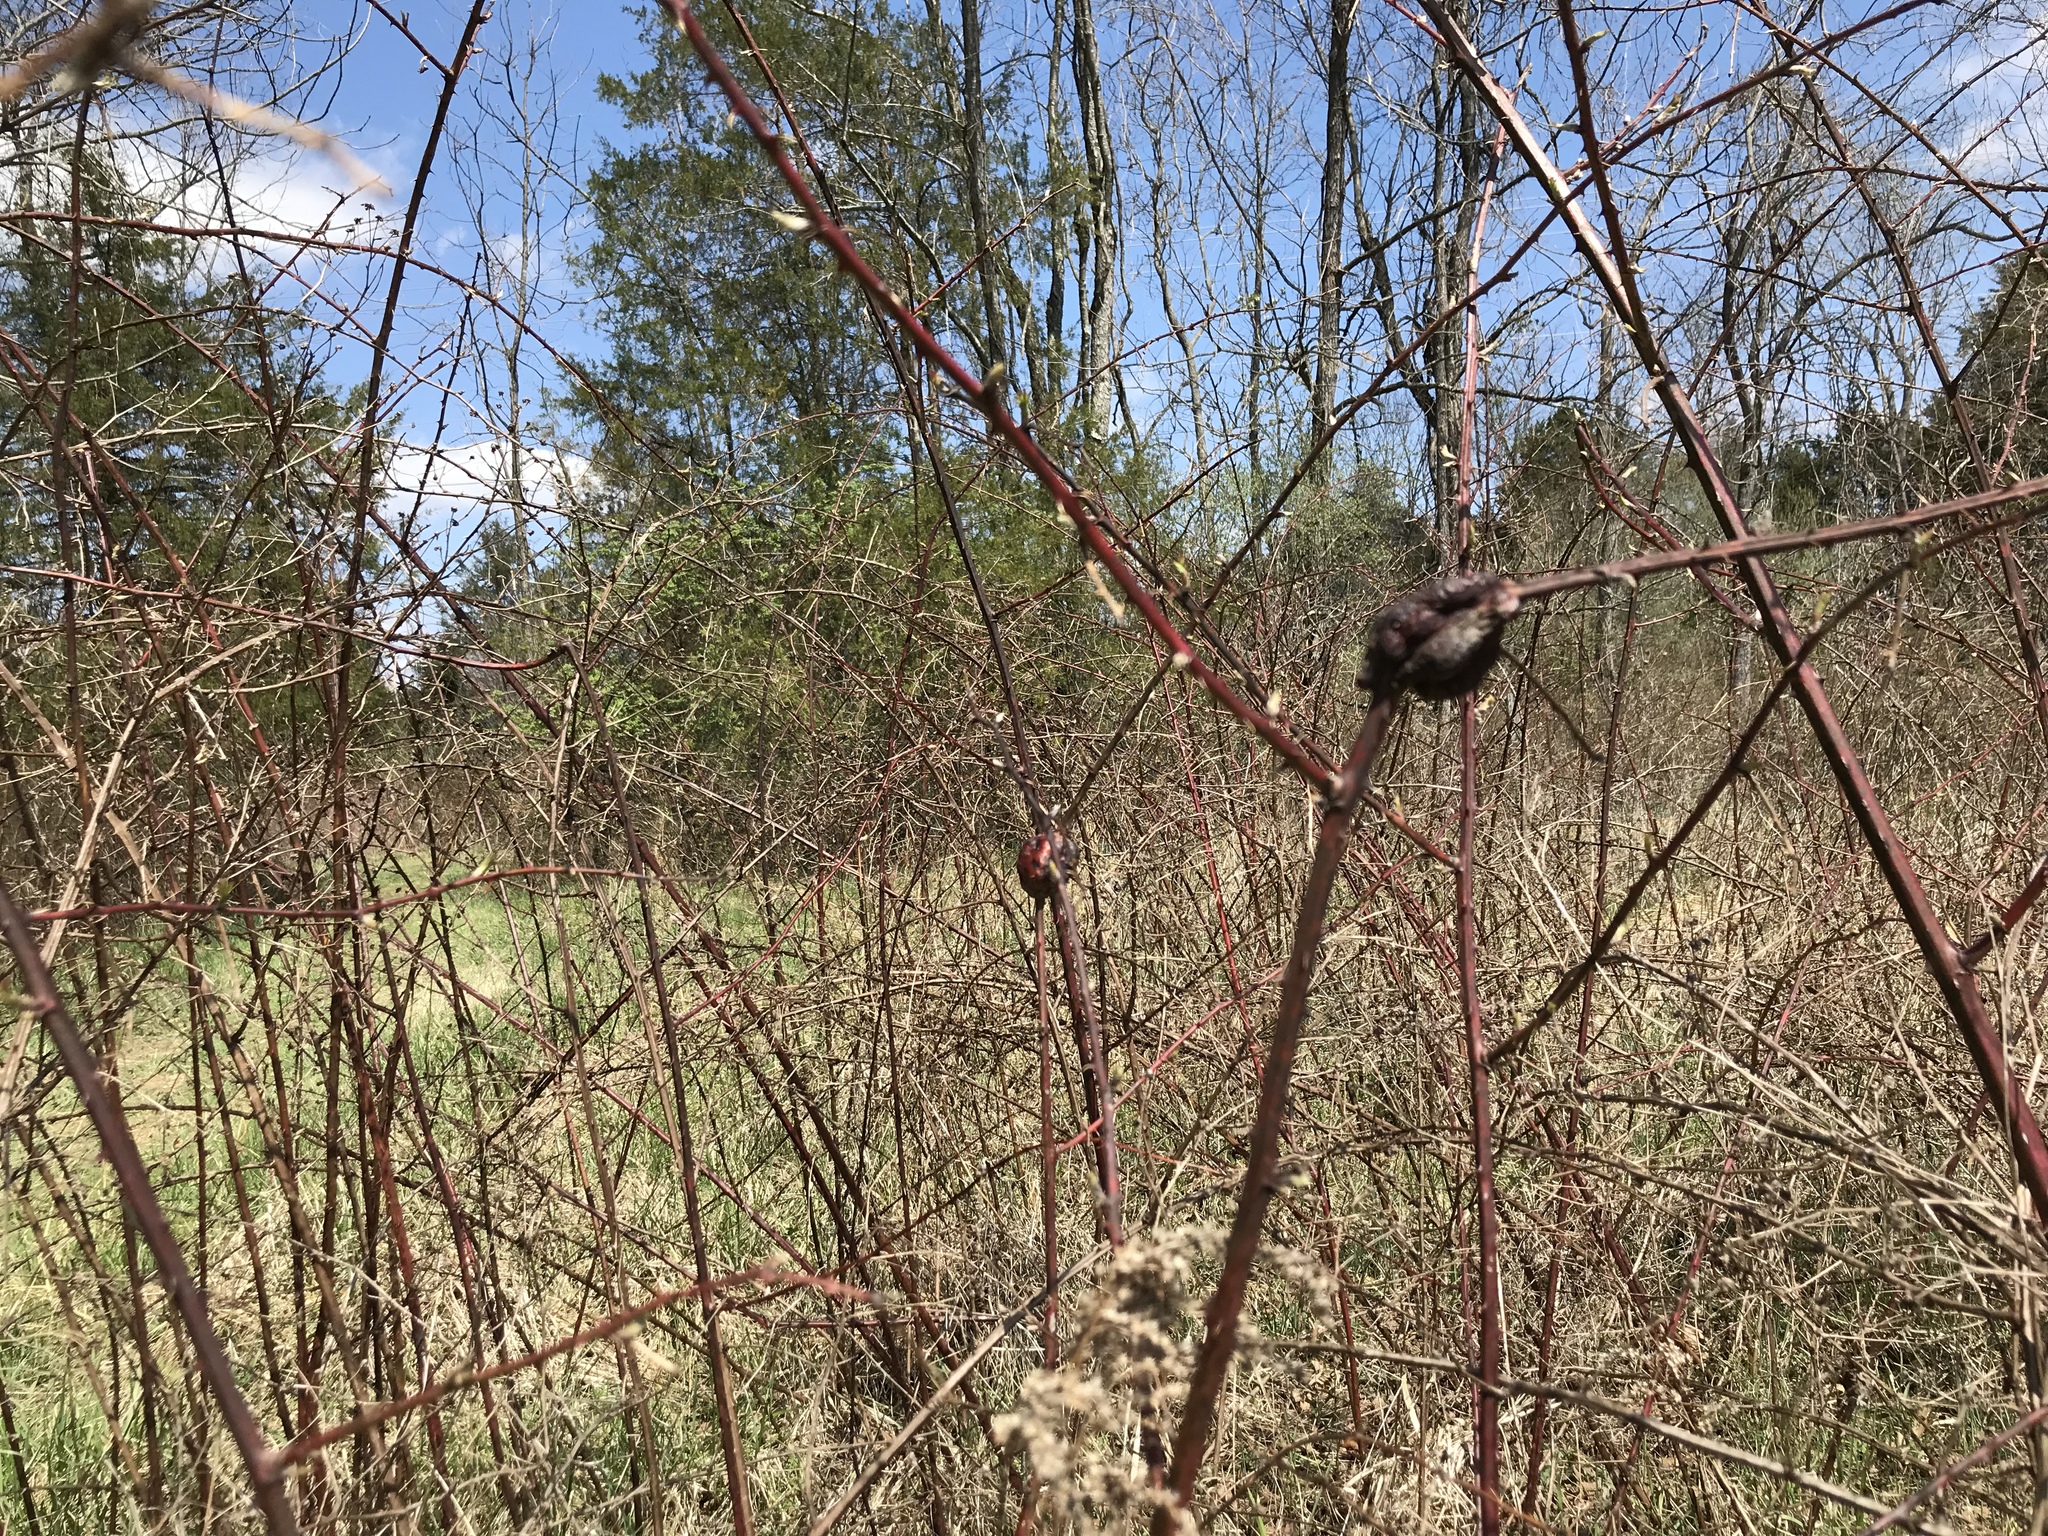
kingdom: Animalia
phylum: Arthropoda
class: Insecta
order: Hymenoptera
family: Cynipidae
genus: Diastrophus
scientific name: Diastrophus
